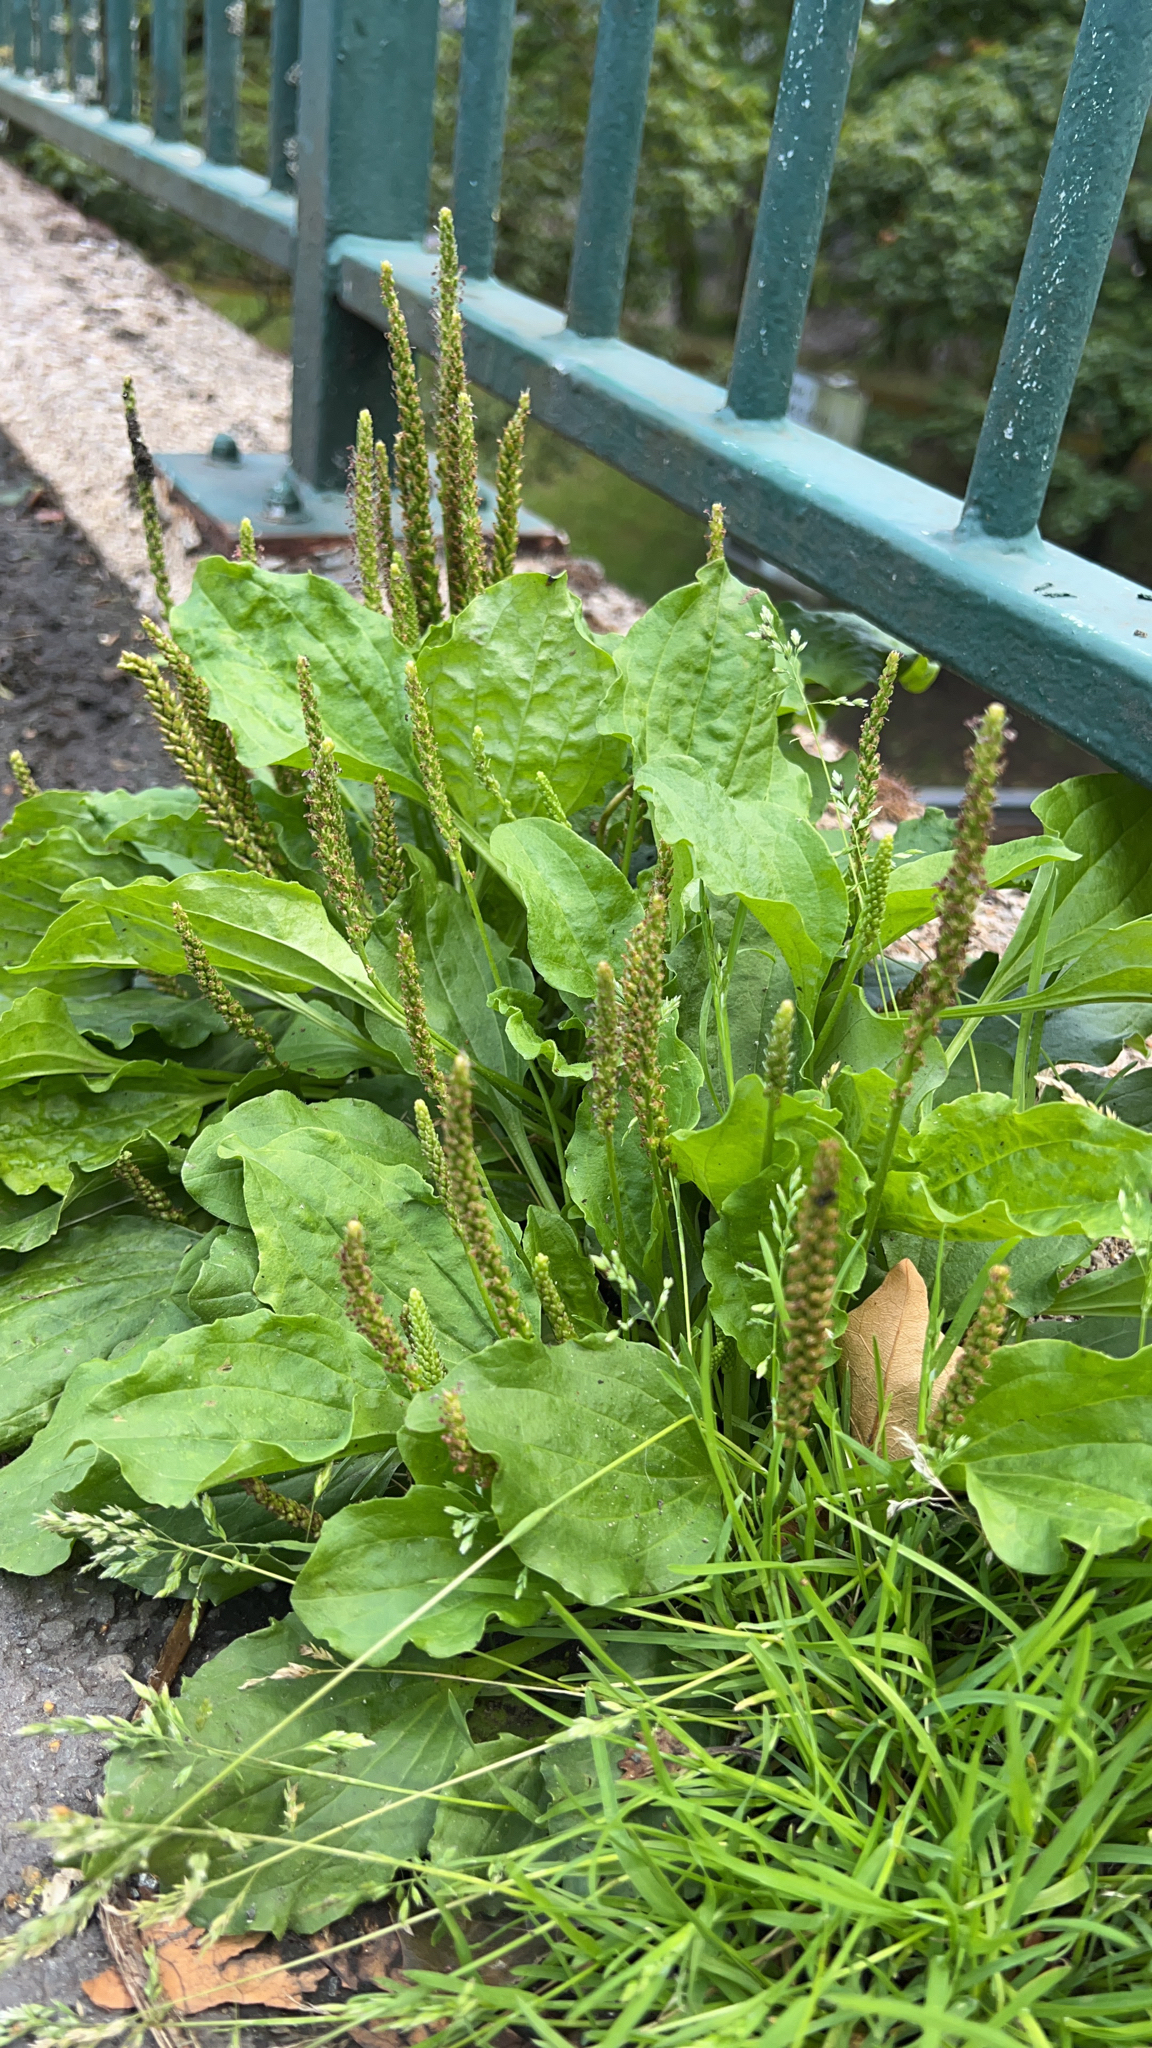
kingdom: Plantae
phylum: Tracheophyta
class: Magnoliopsida
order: Lamiales
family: Plantaginaceae
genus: Plantago
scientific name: Plantago major
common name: Common plantain
